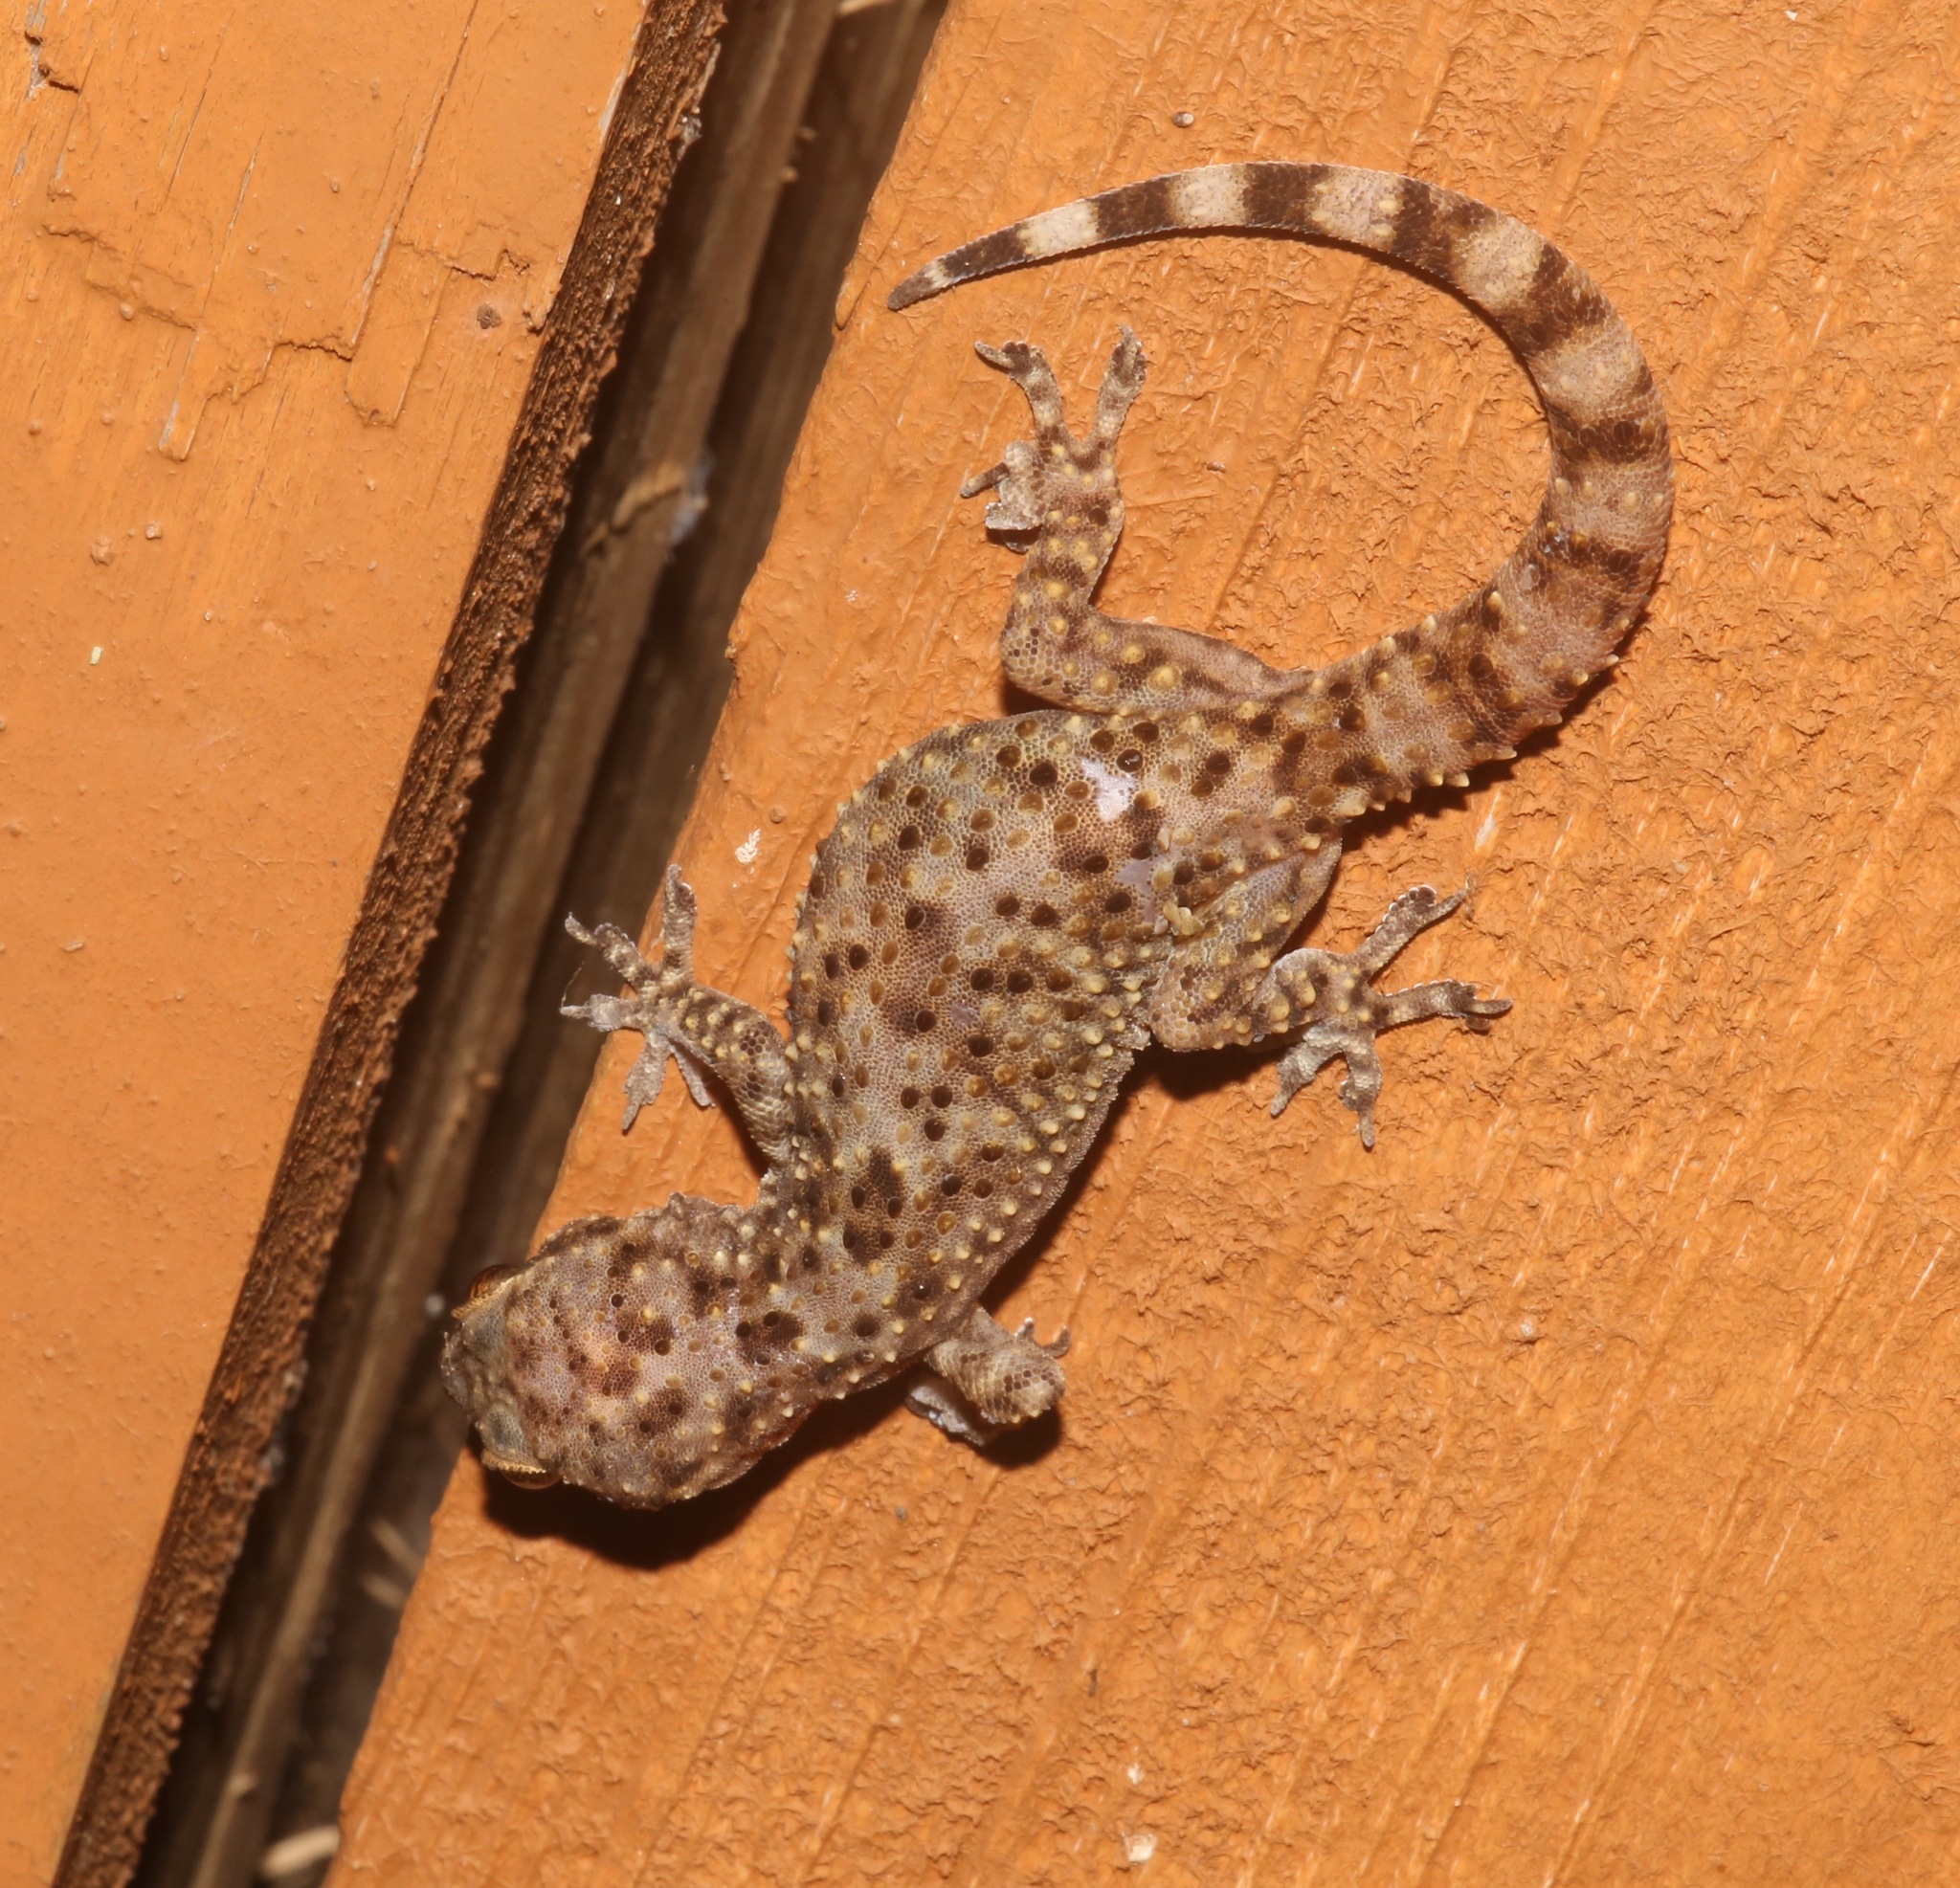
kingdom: Animalia
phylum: Chordata
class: Squamata
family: Gekkonidae
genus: Hemidactylus
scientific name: Hemidactylus turcicus
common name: Turkish gecko
